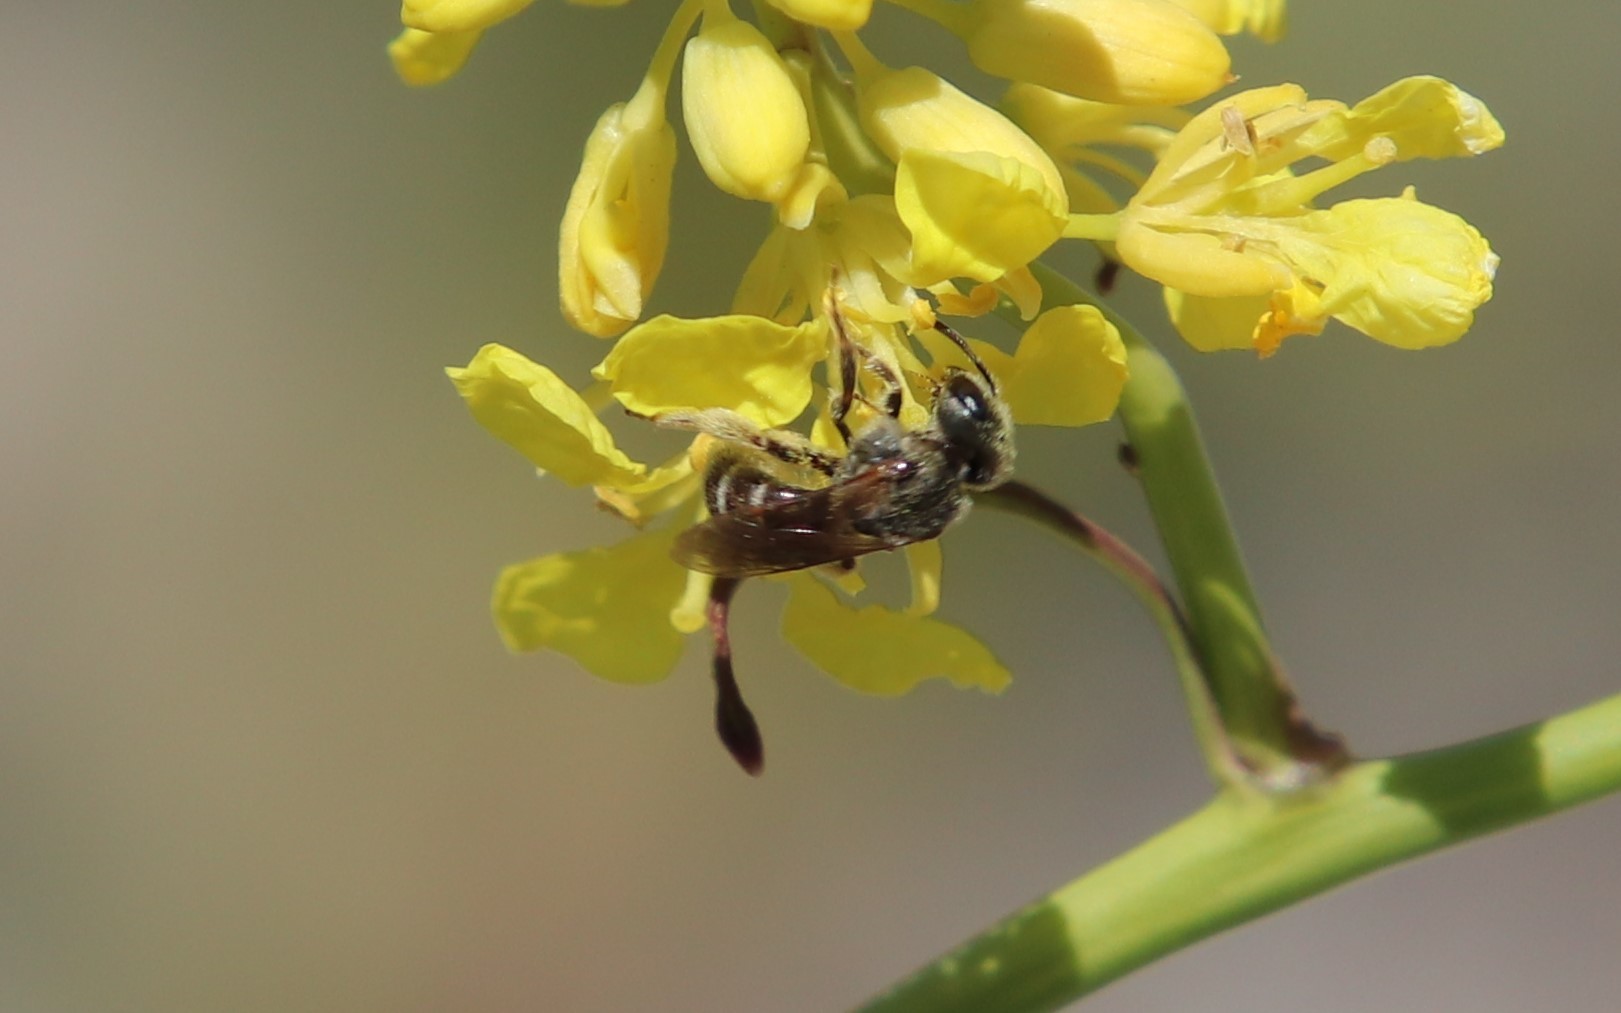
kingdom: Animalia
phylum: Arthropoda
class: Insecta
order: Hymenoptera
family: Halictidae
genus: Halictus
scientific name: Halictus tripartitus
